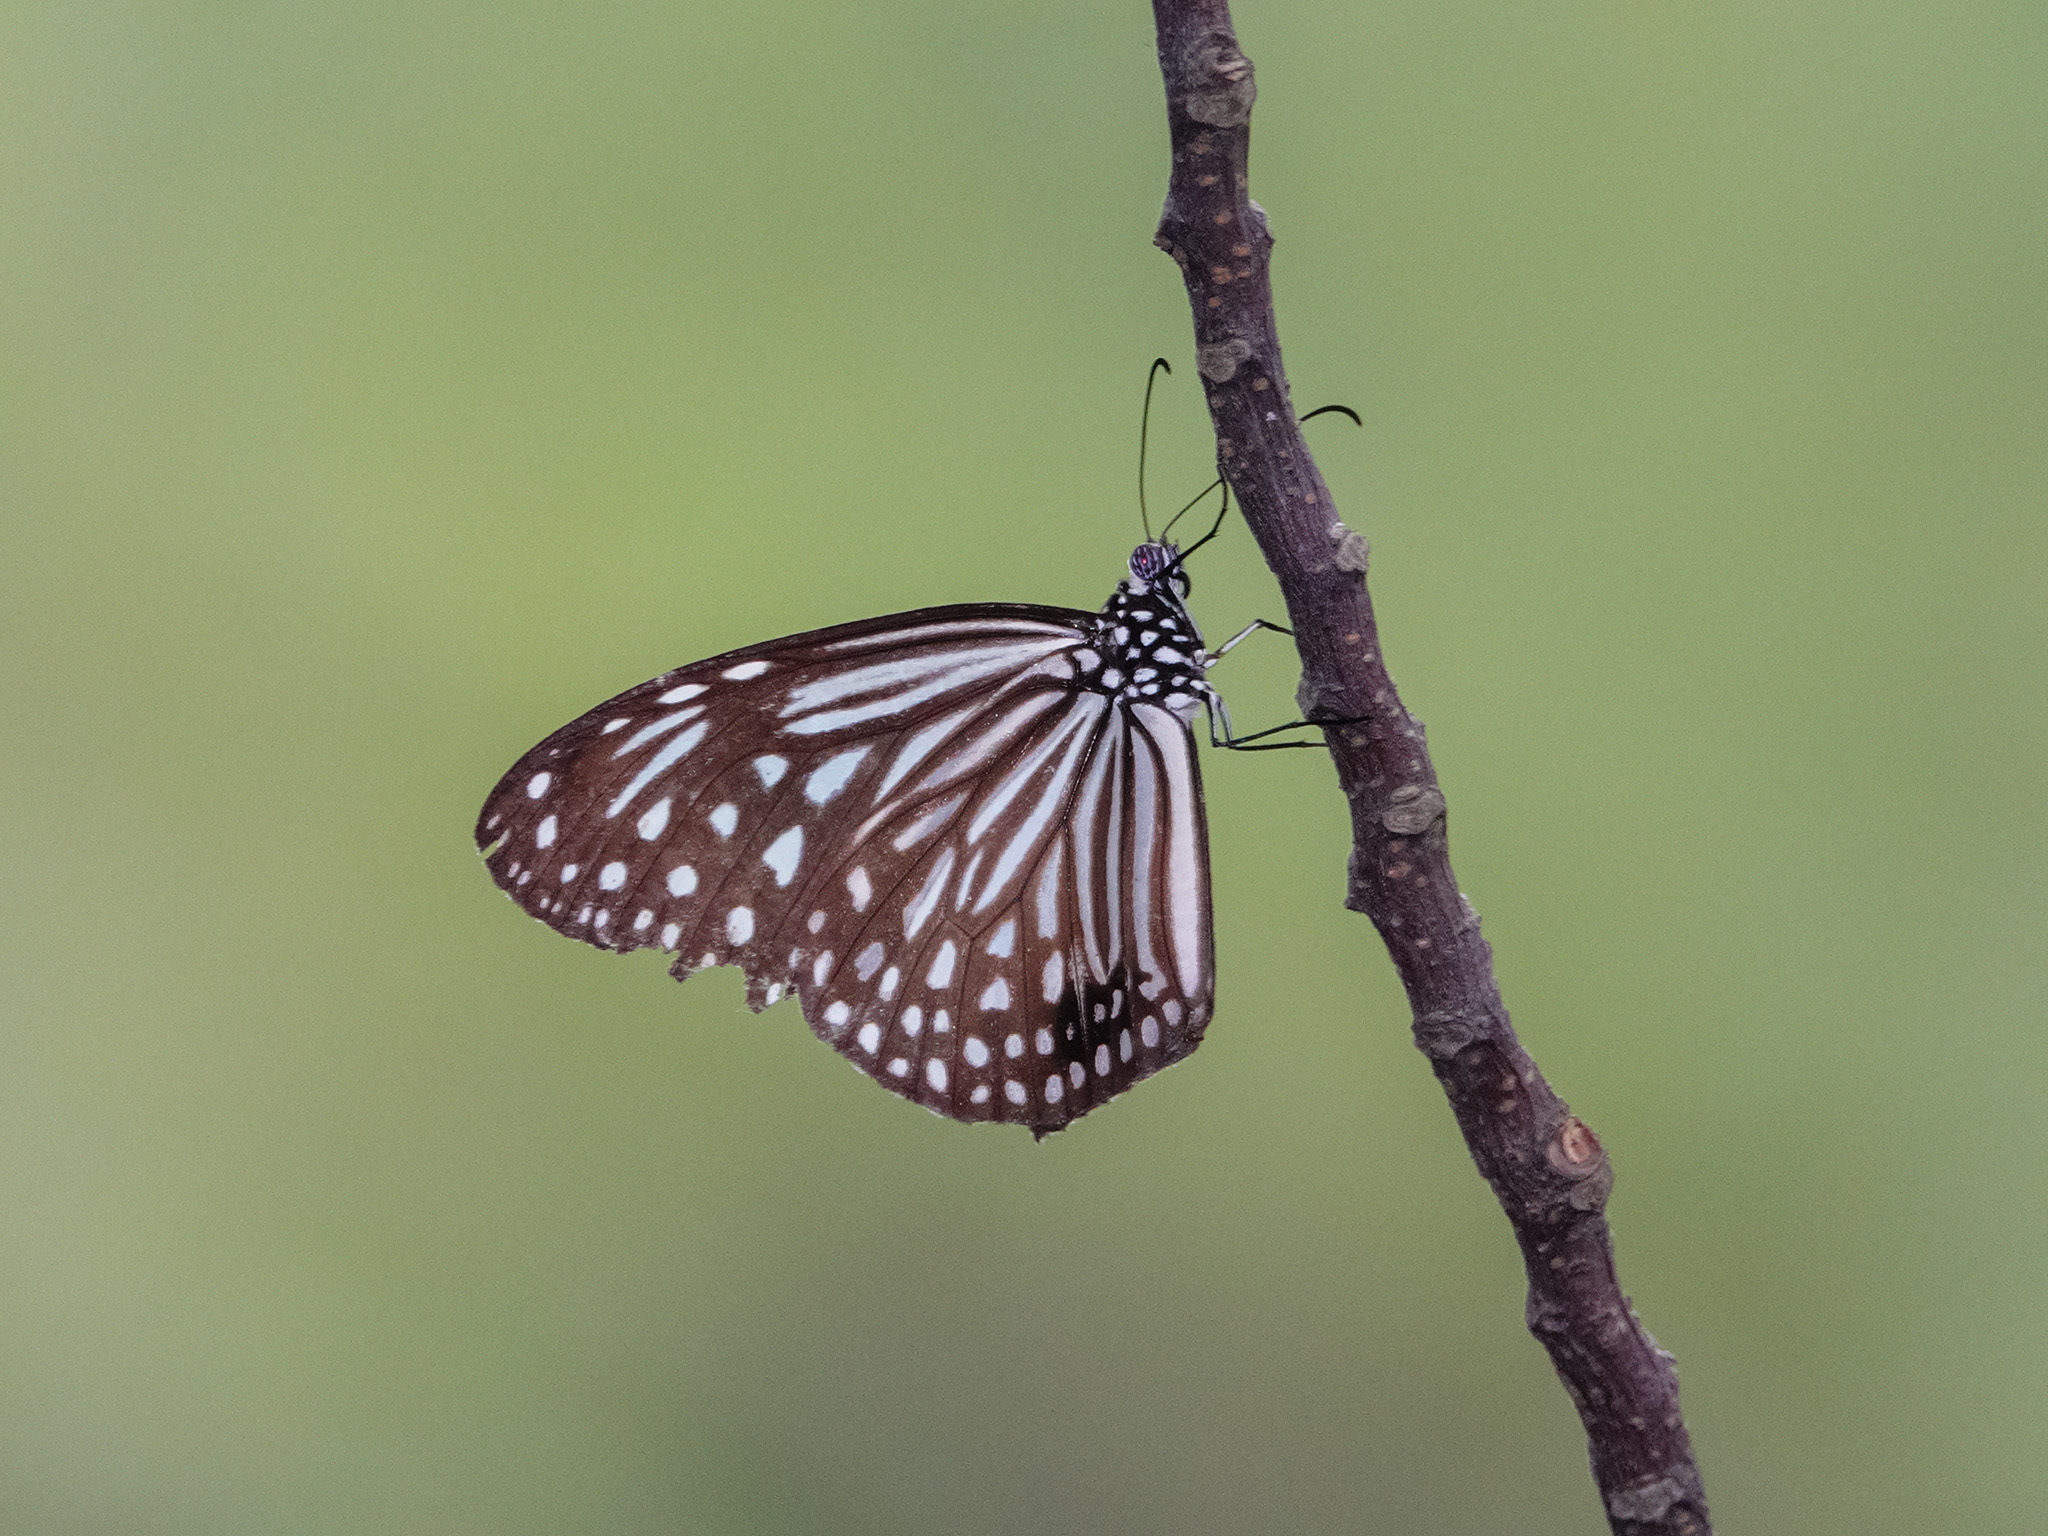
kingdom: Animalia
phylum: Arthropoda
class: Insecta
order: Lepidoptera
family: Nymphalidae
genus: Parantica
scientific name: Parantica agleoides
